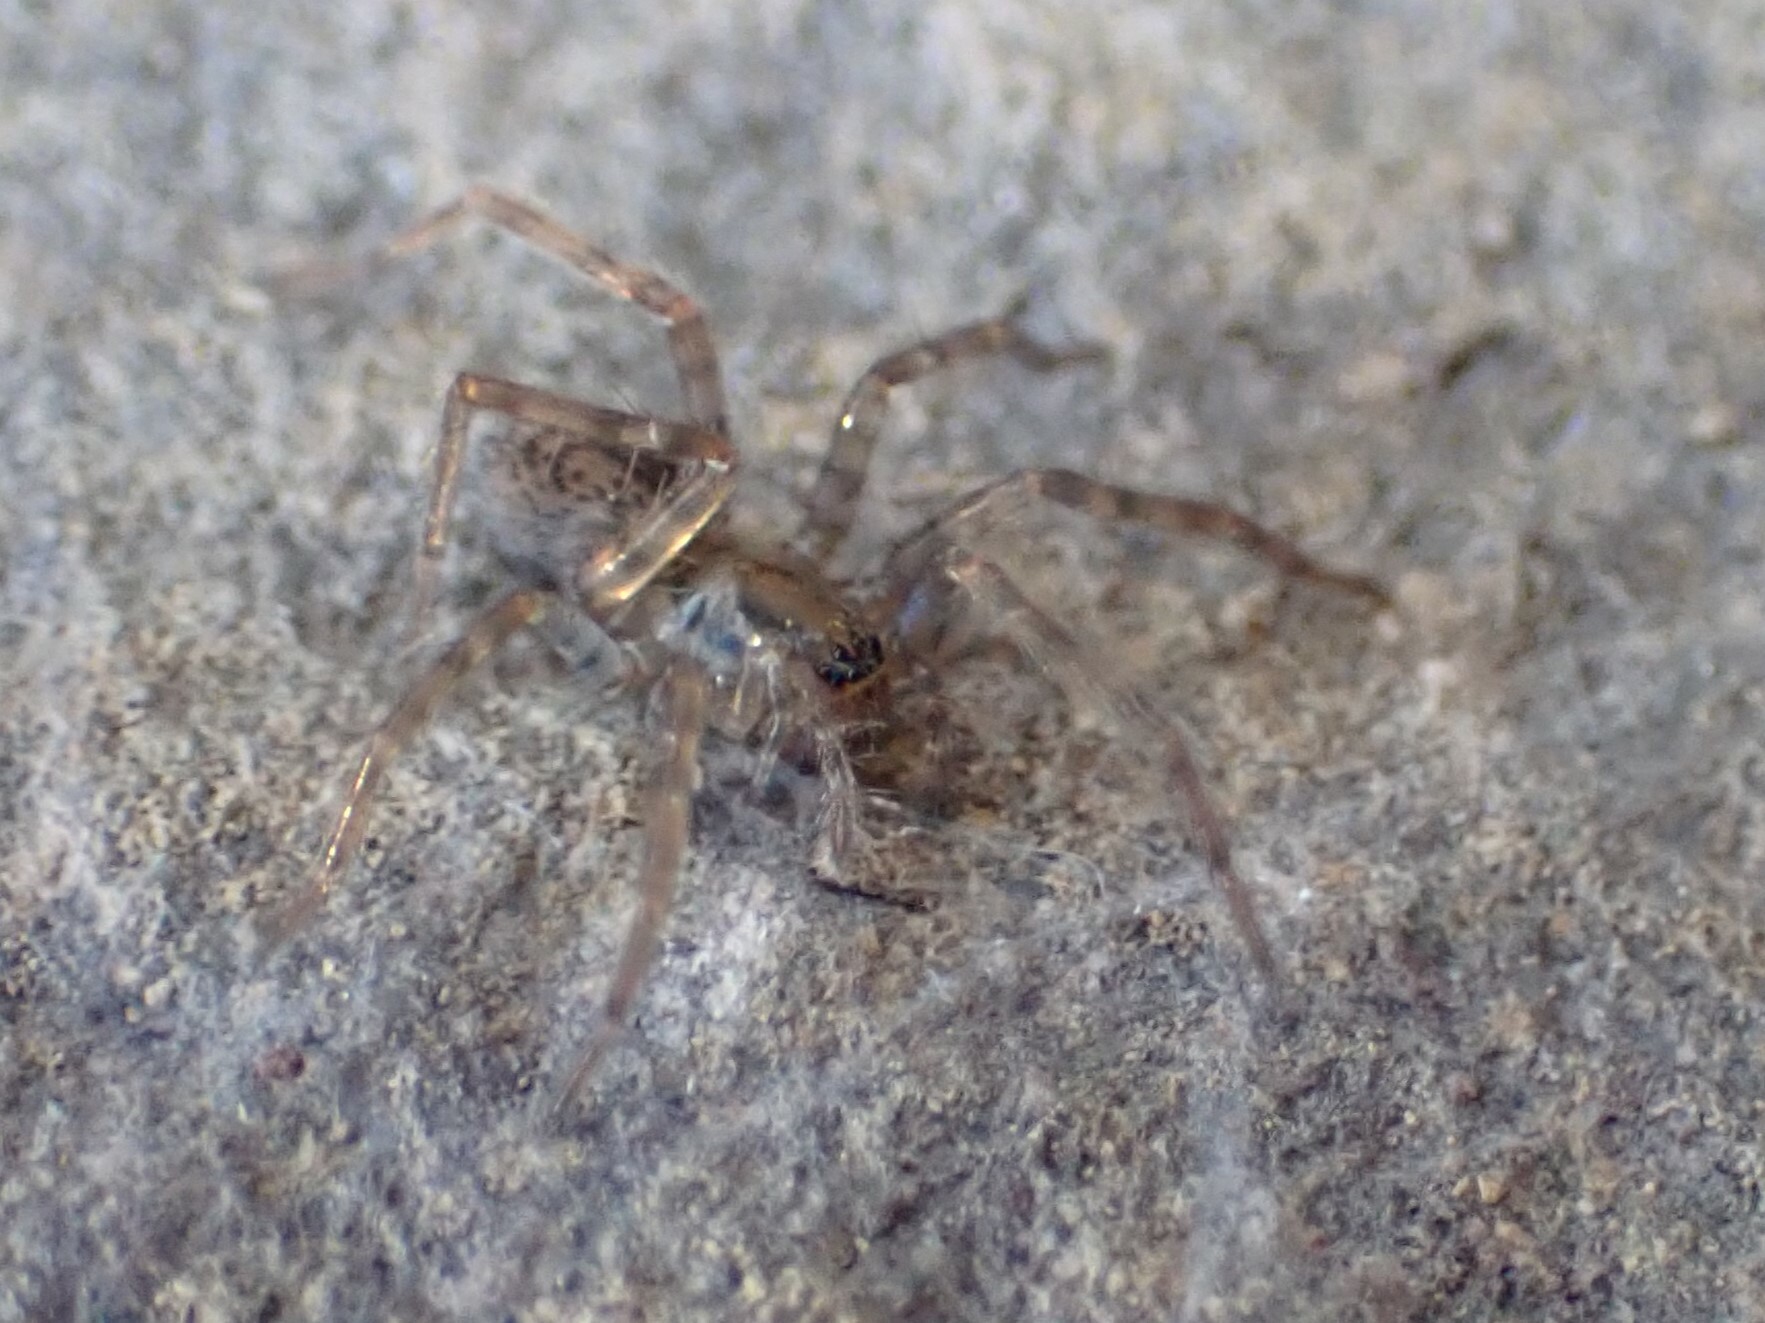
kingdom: Animalia
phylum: Arthropoda
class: Arachnida
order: Araneae
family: Agelenidae
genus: Coras
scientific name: Coras
